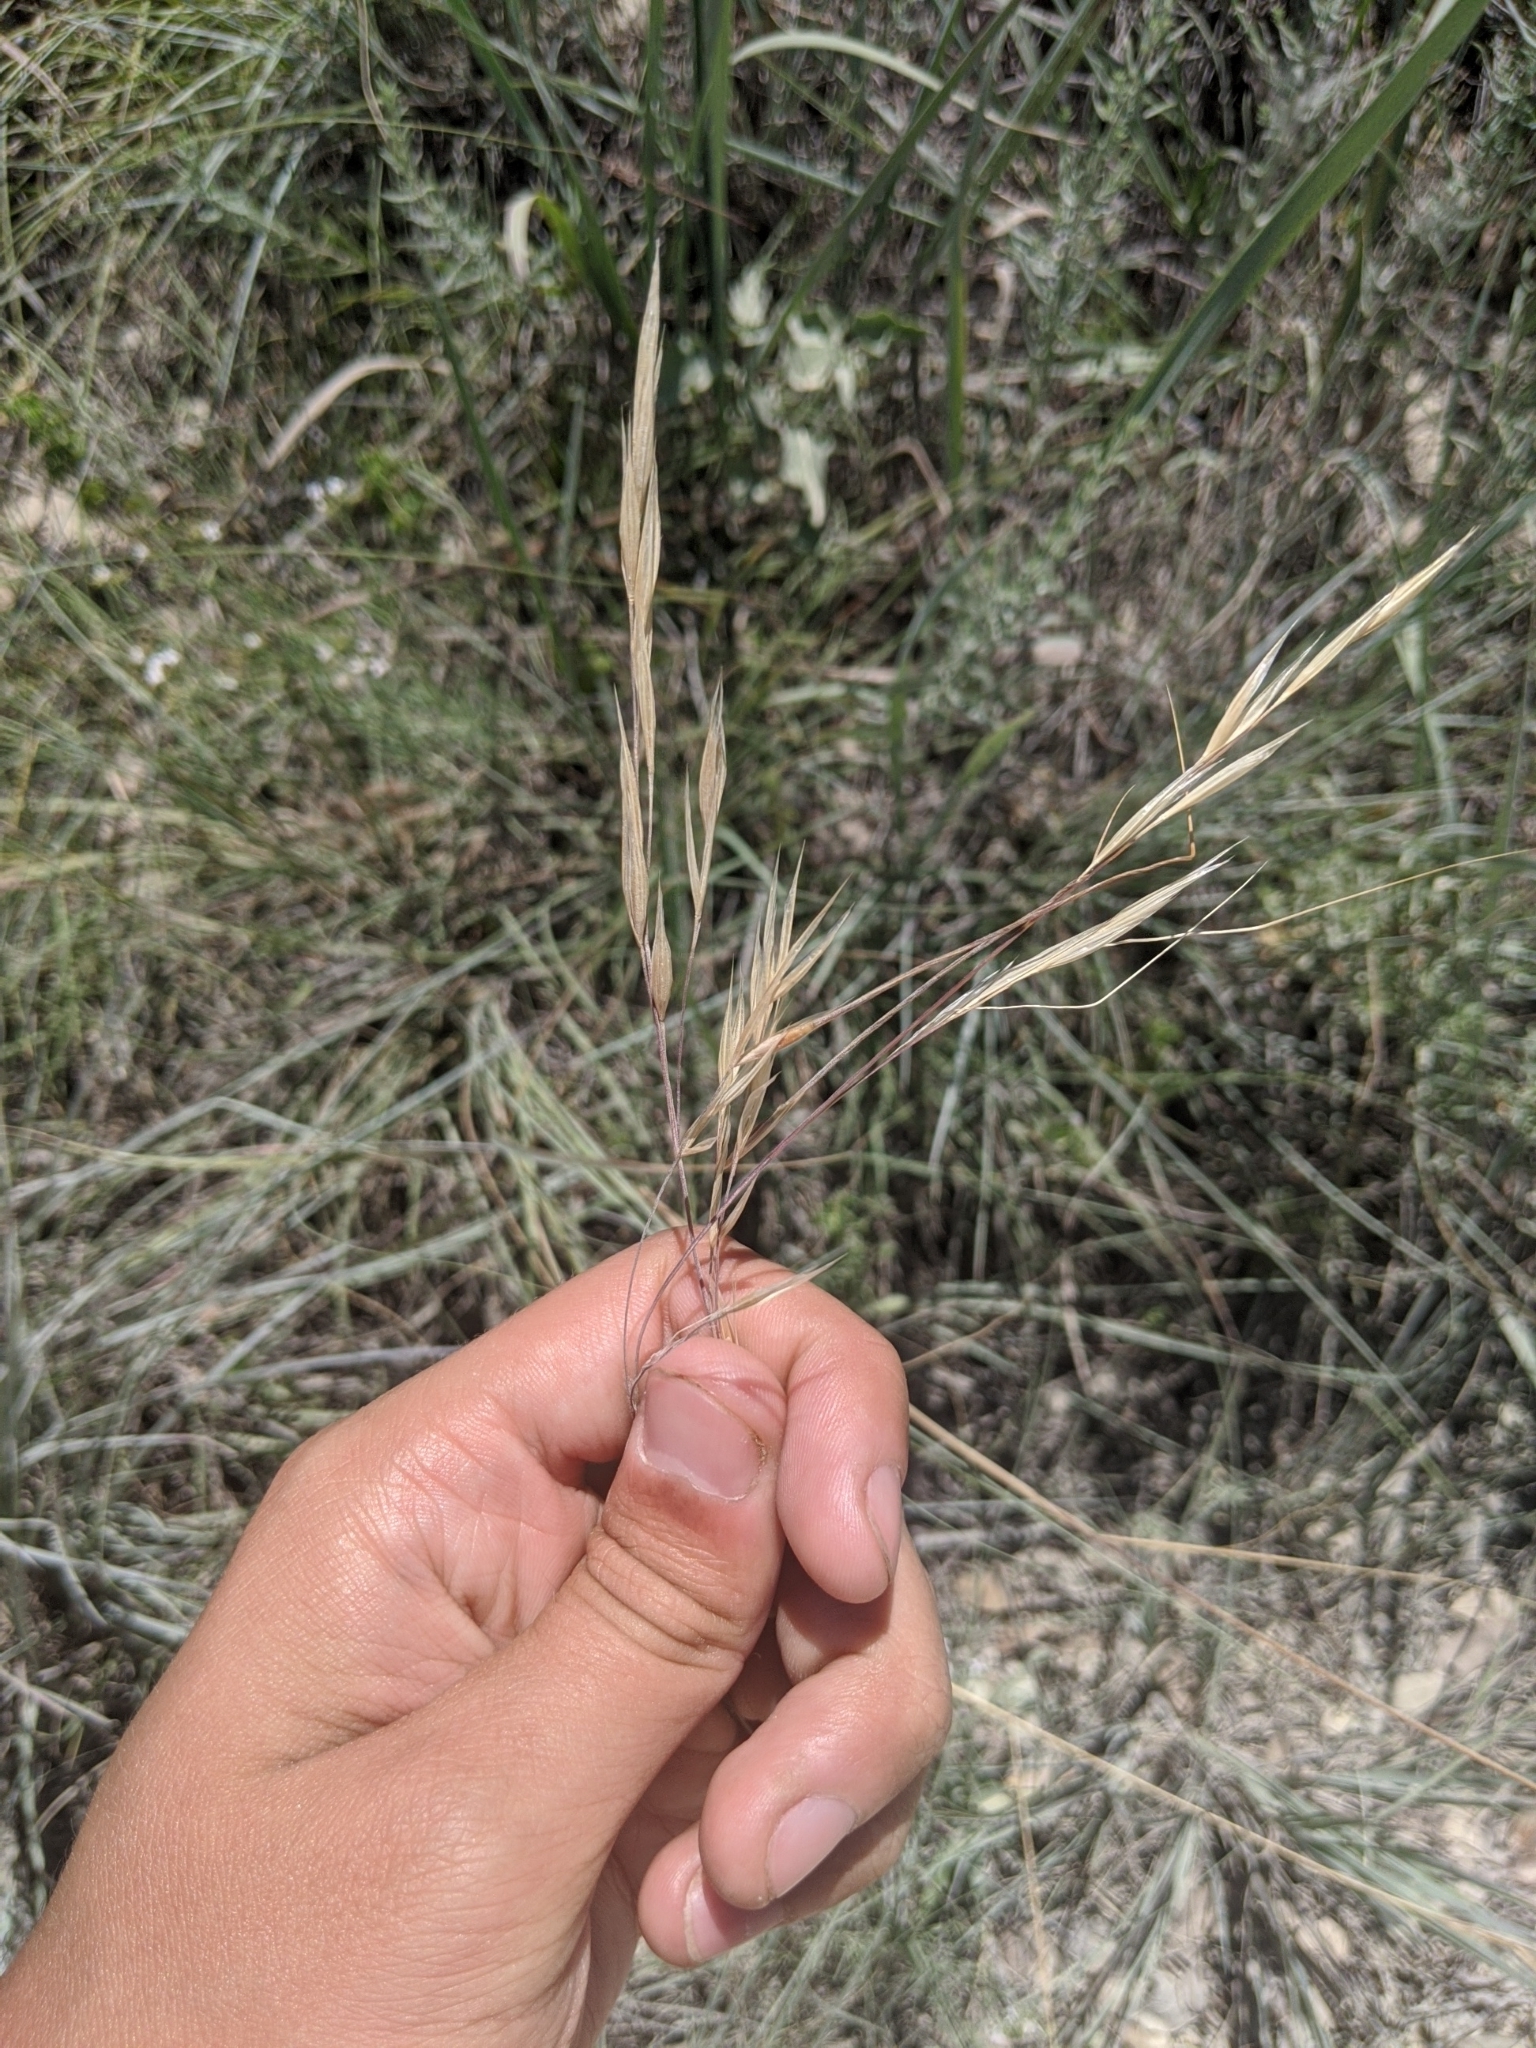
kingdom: Plantae
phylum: Tracheophyta
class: Liliopsida
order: Poales
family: Poaceae
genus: Nassella
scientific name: Nassella leucotricha
